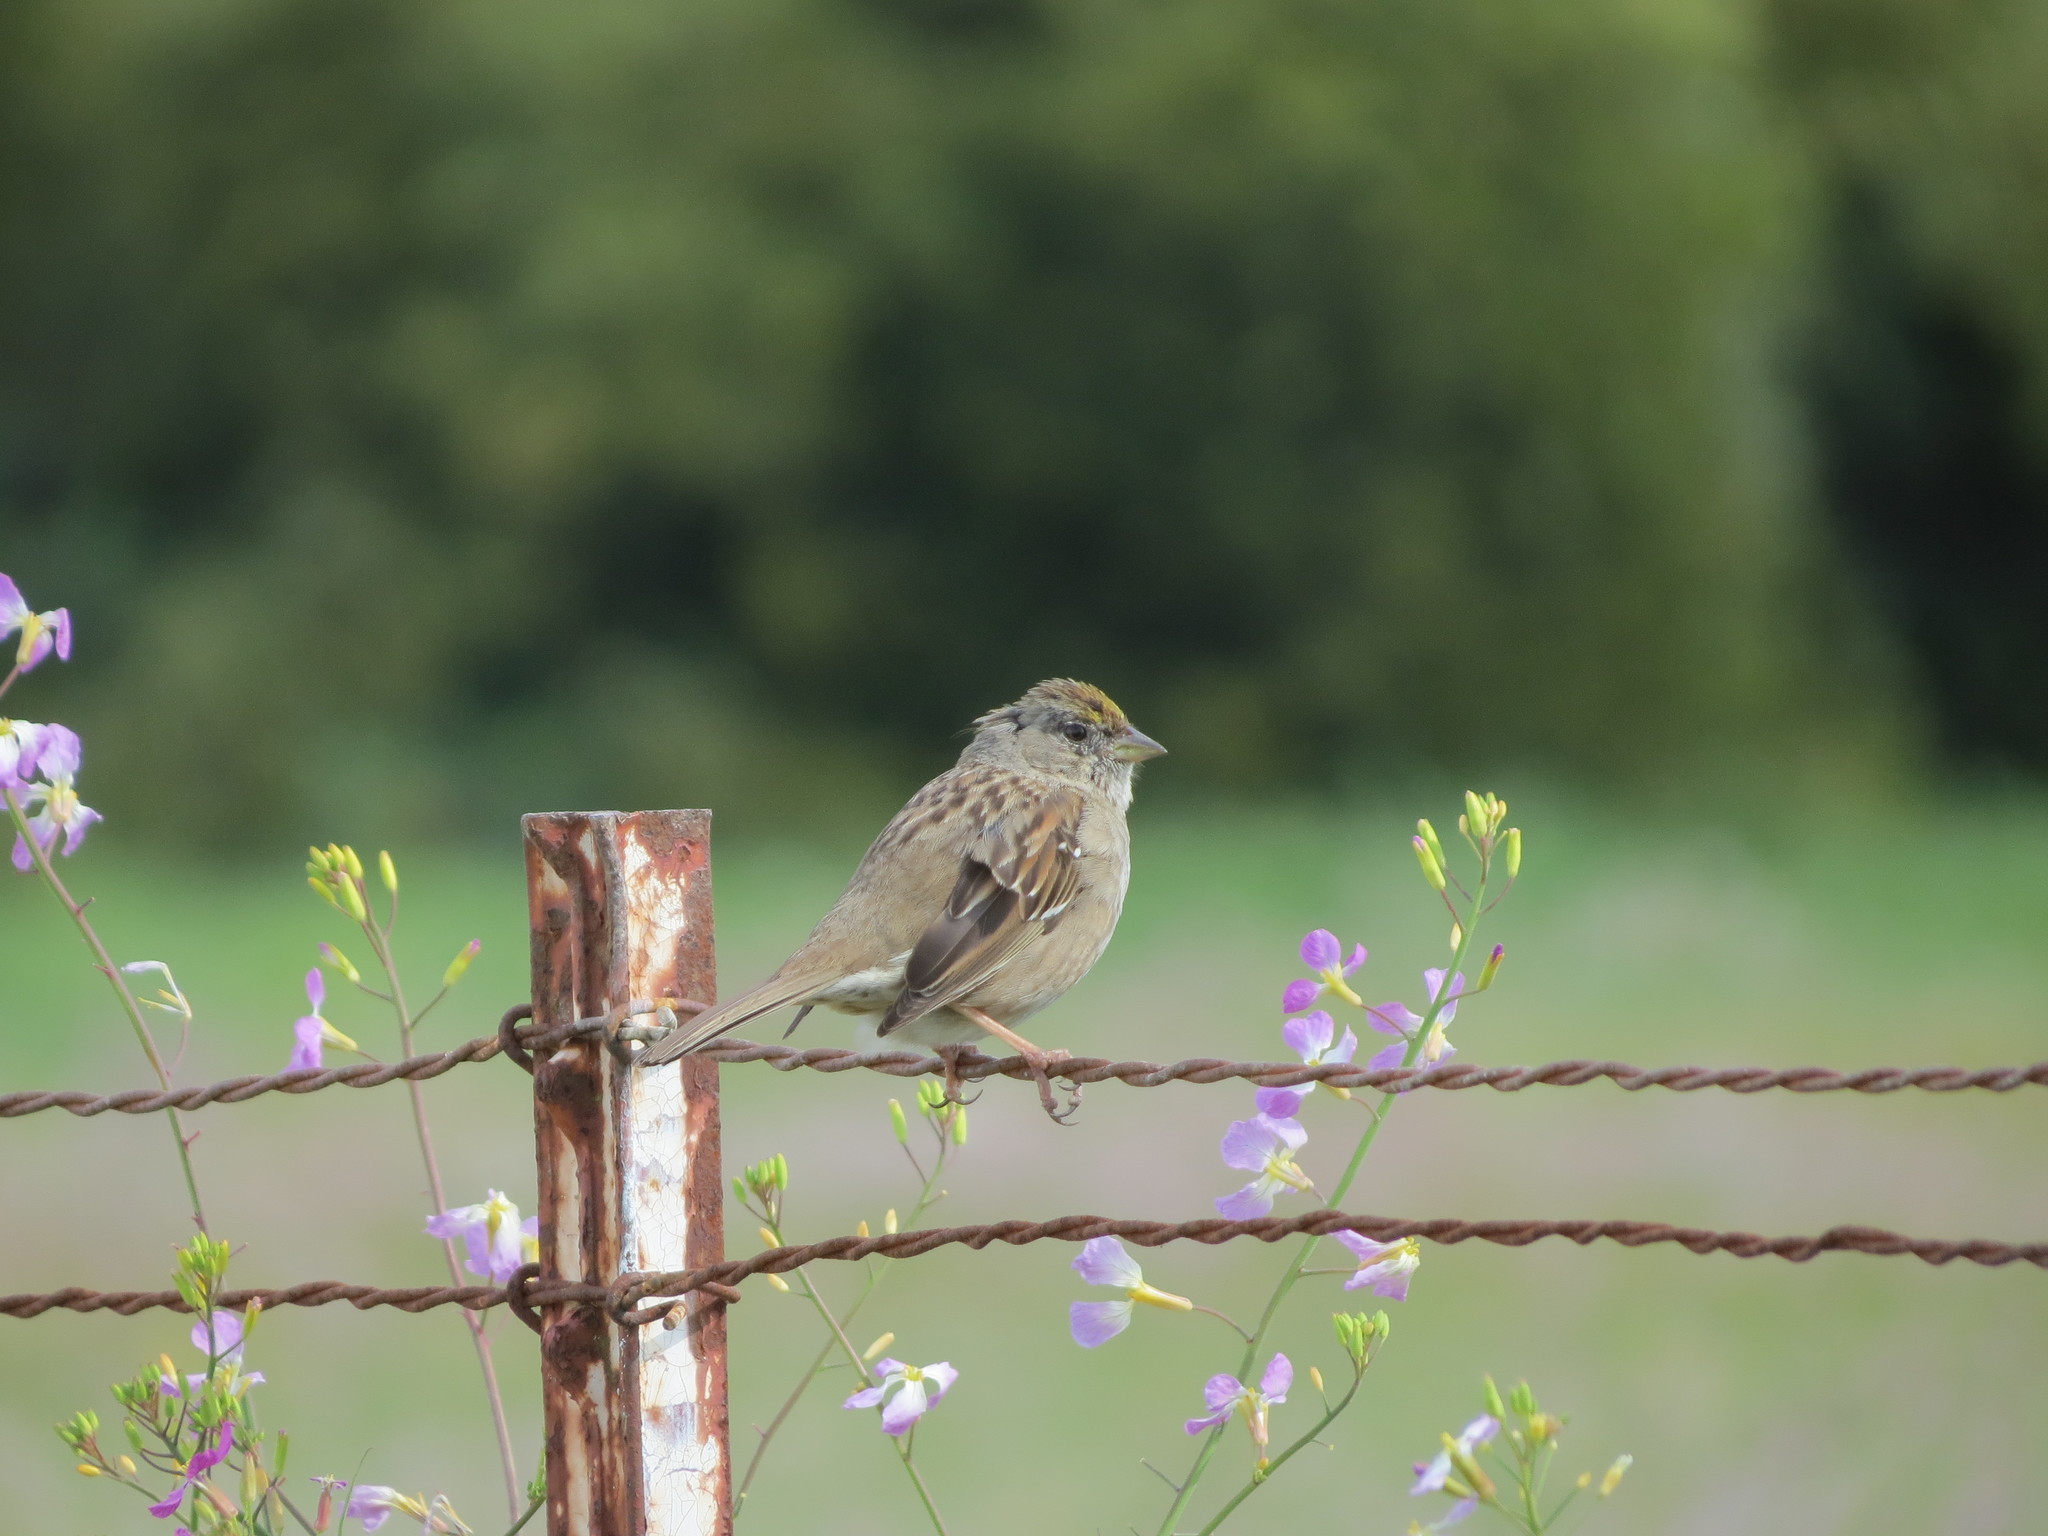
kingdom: Animalia
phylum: Chordata
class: Aves
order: Passeriformes
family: Passerellidae
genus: Zonotrichia
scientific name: Zonotrichia atricapilla
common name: Golden-crowned sparrow
